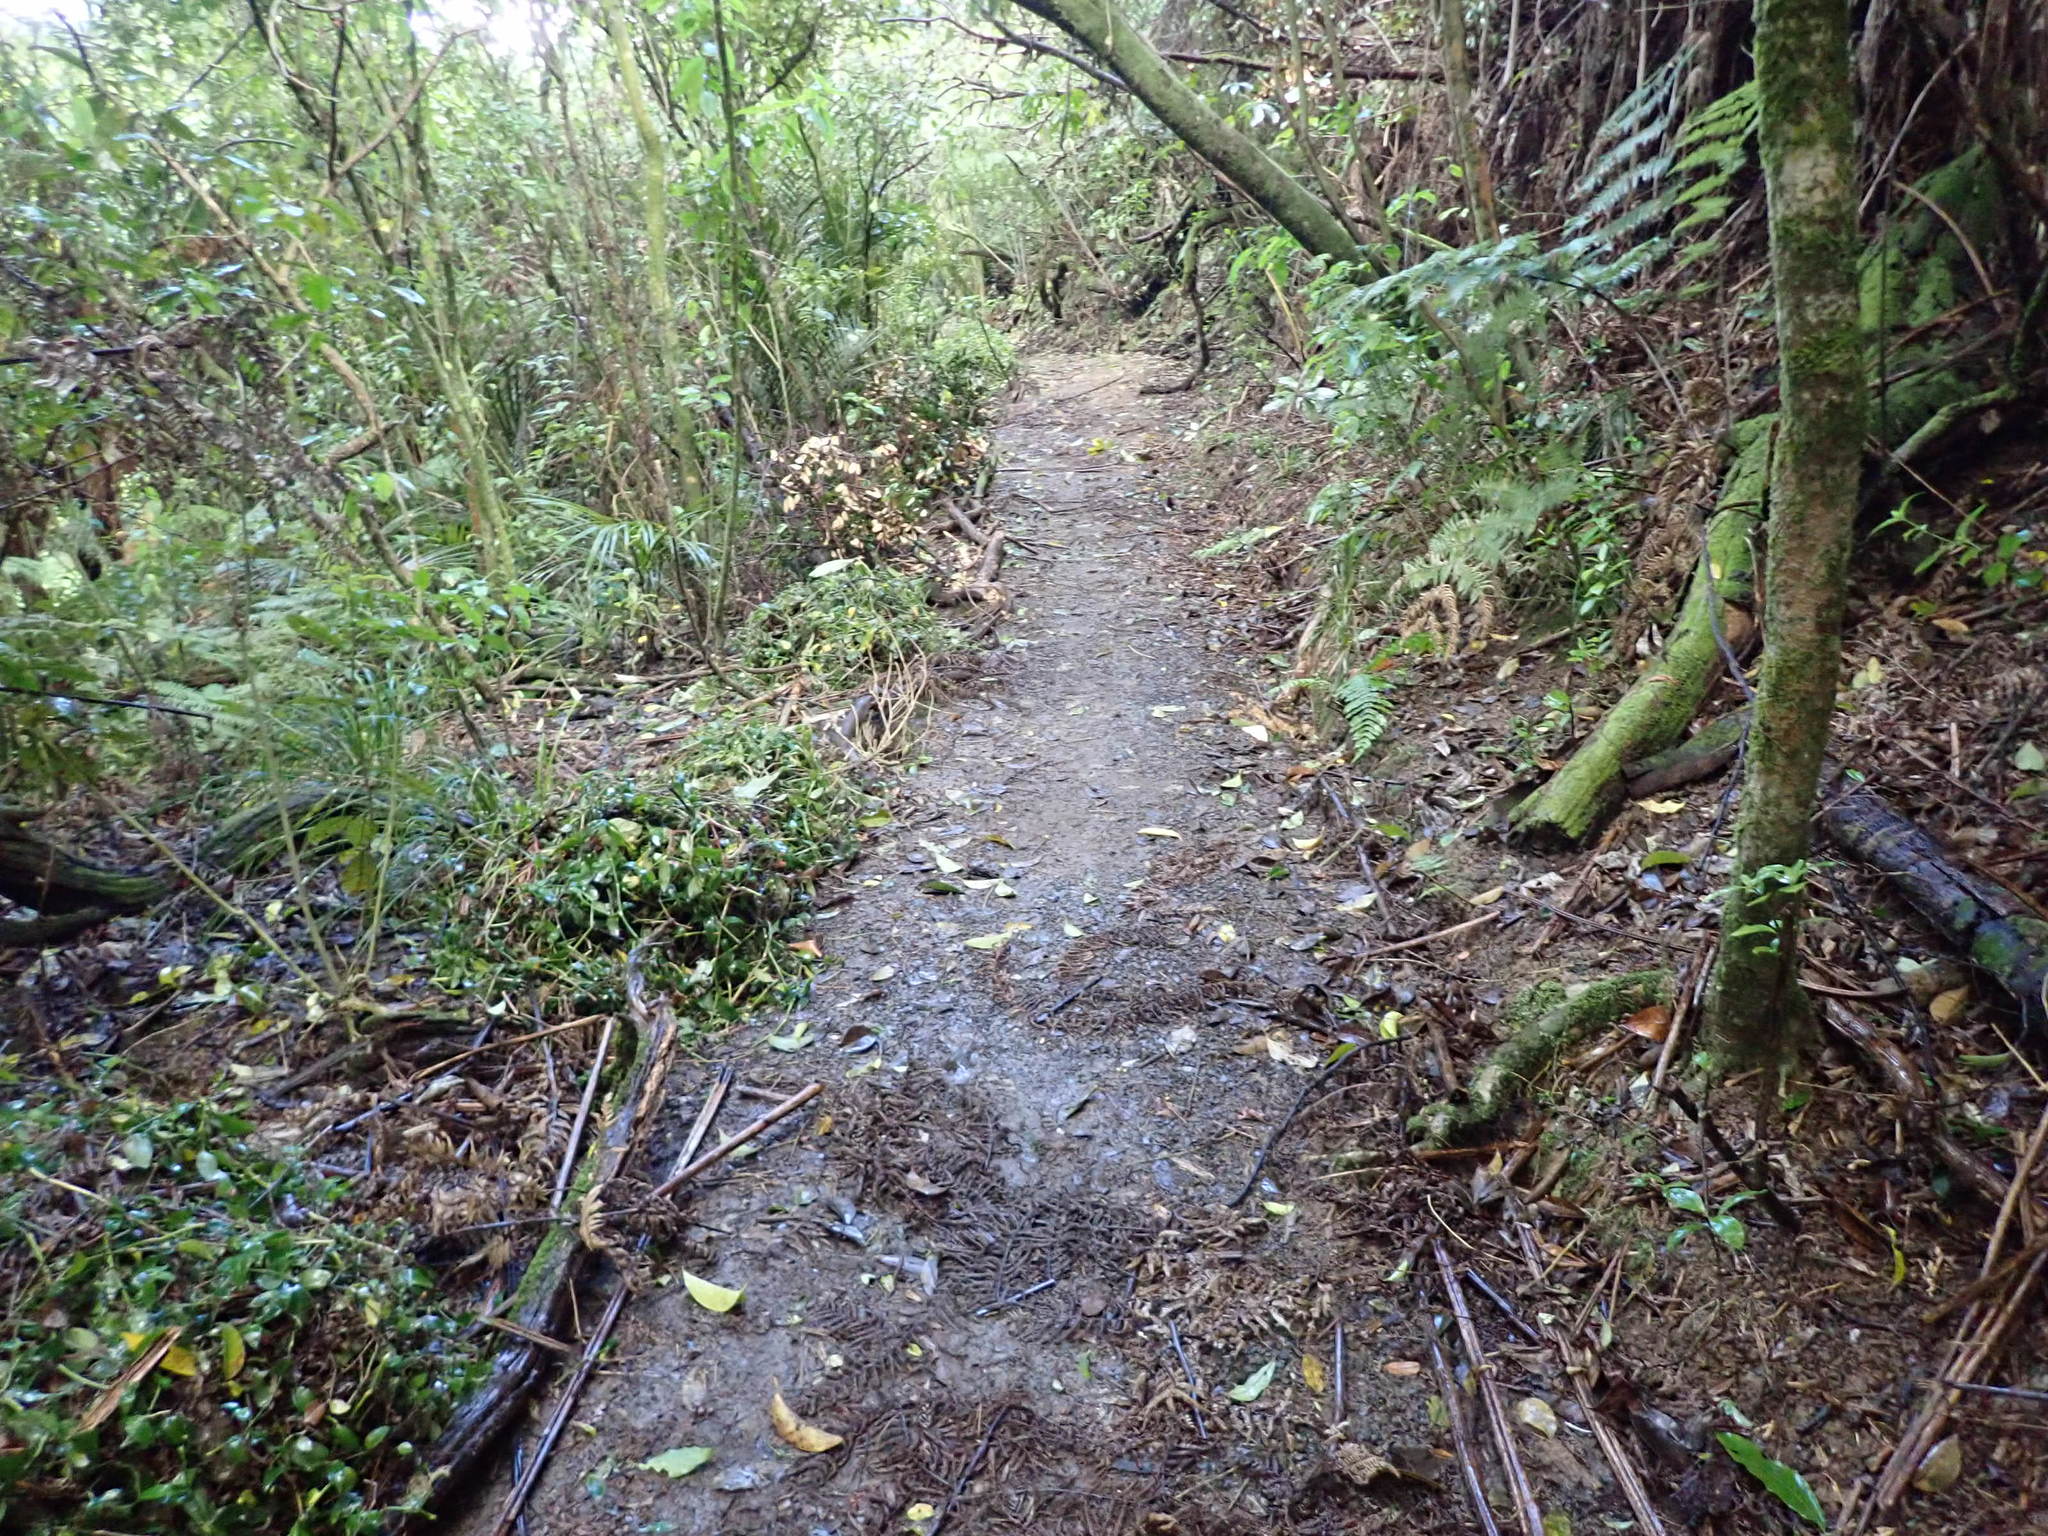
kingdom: Plantae
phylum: Tracheophyta
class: Liliopsida
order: Commelinales
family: Commelinaceae
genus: Tradescantia
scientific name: Tradescantia fluminensis
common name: Wandering-jew
